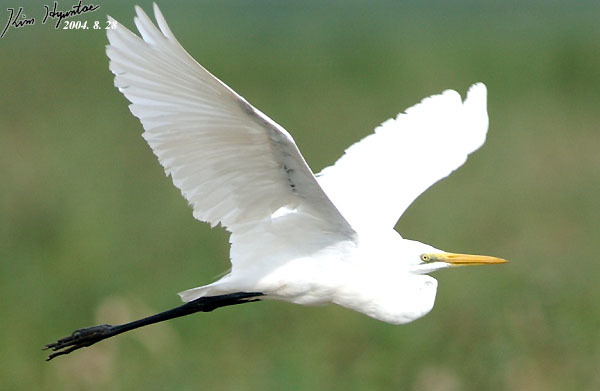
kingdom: Animalia
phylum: Chordata
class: Aves
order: Pelecaniformes
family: Ardeidae
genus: Ardea
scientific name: Ardea modesta
